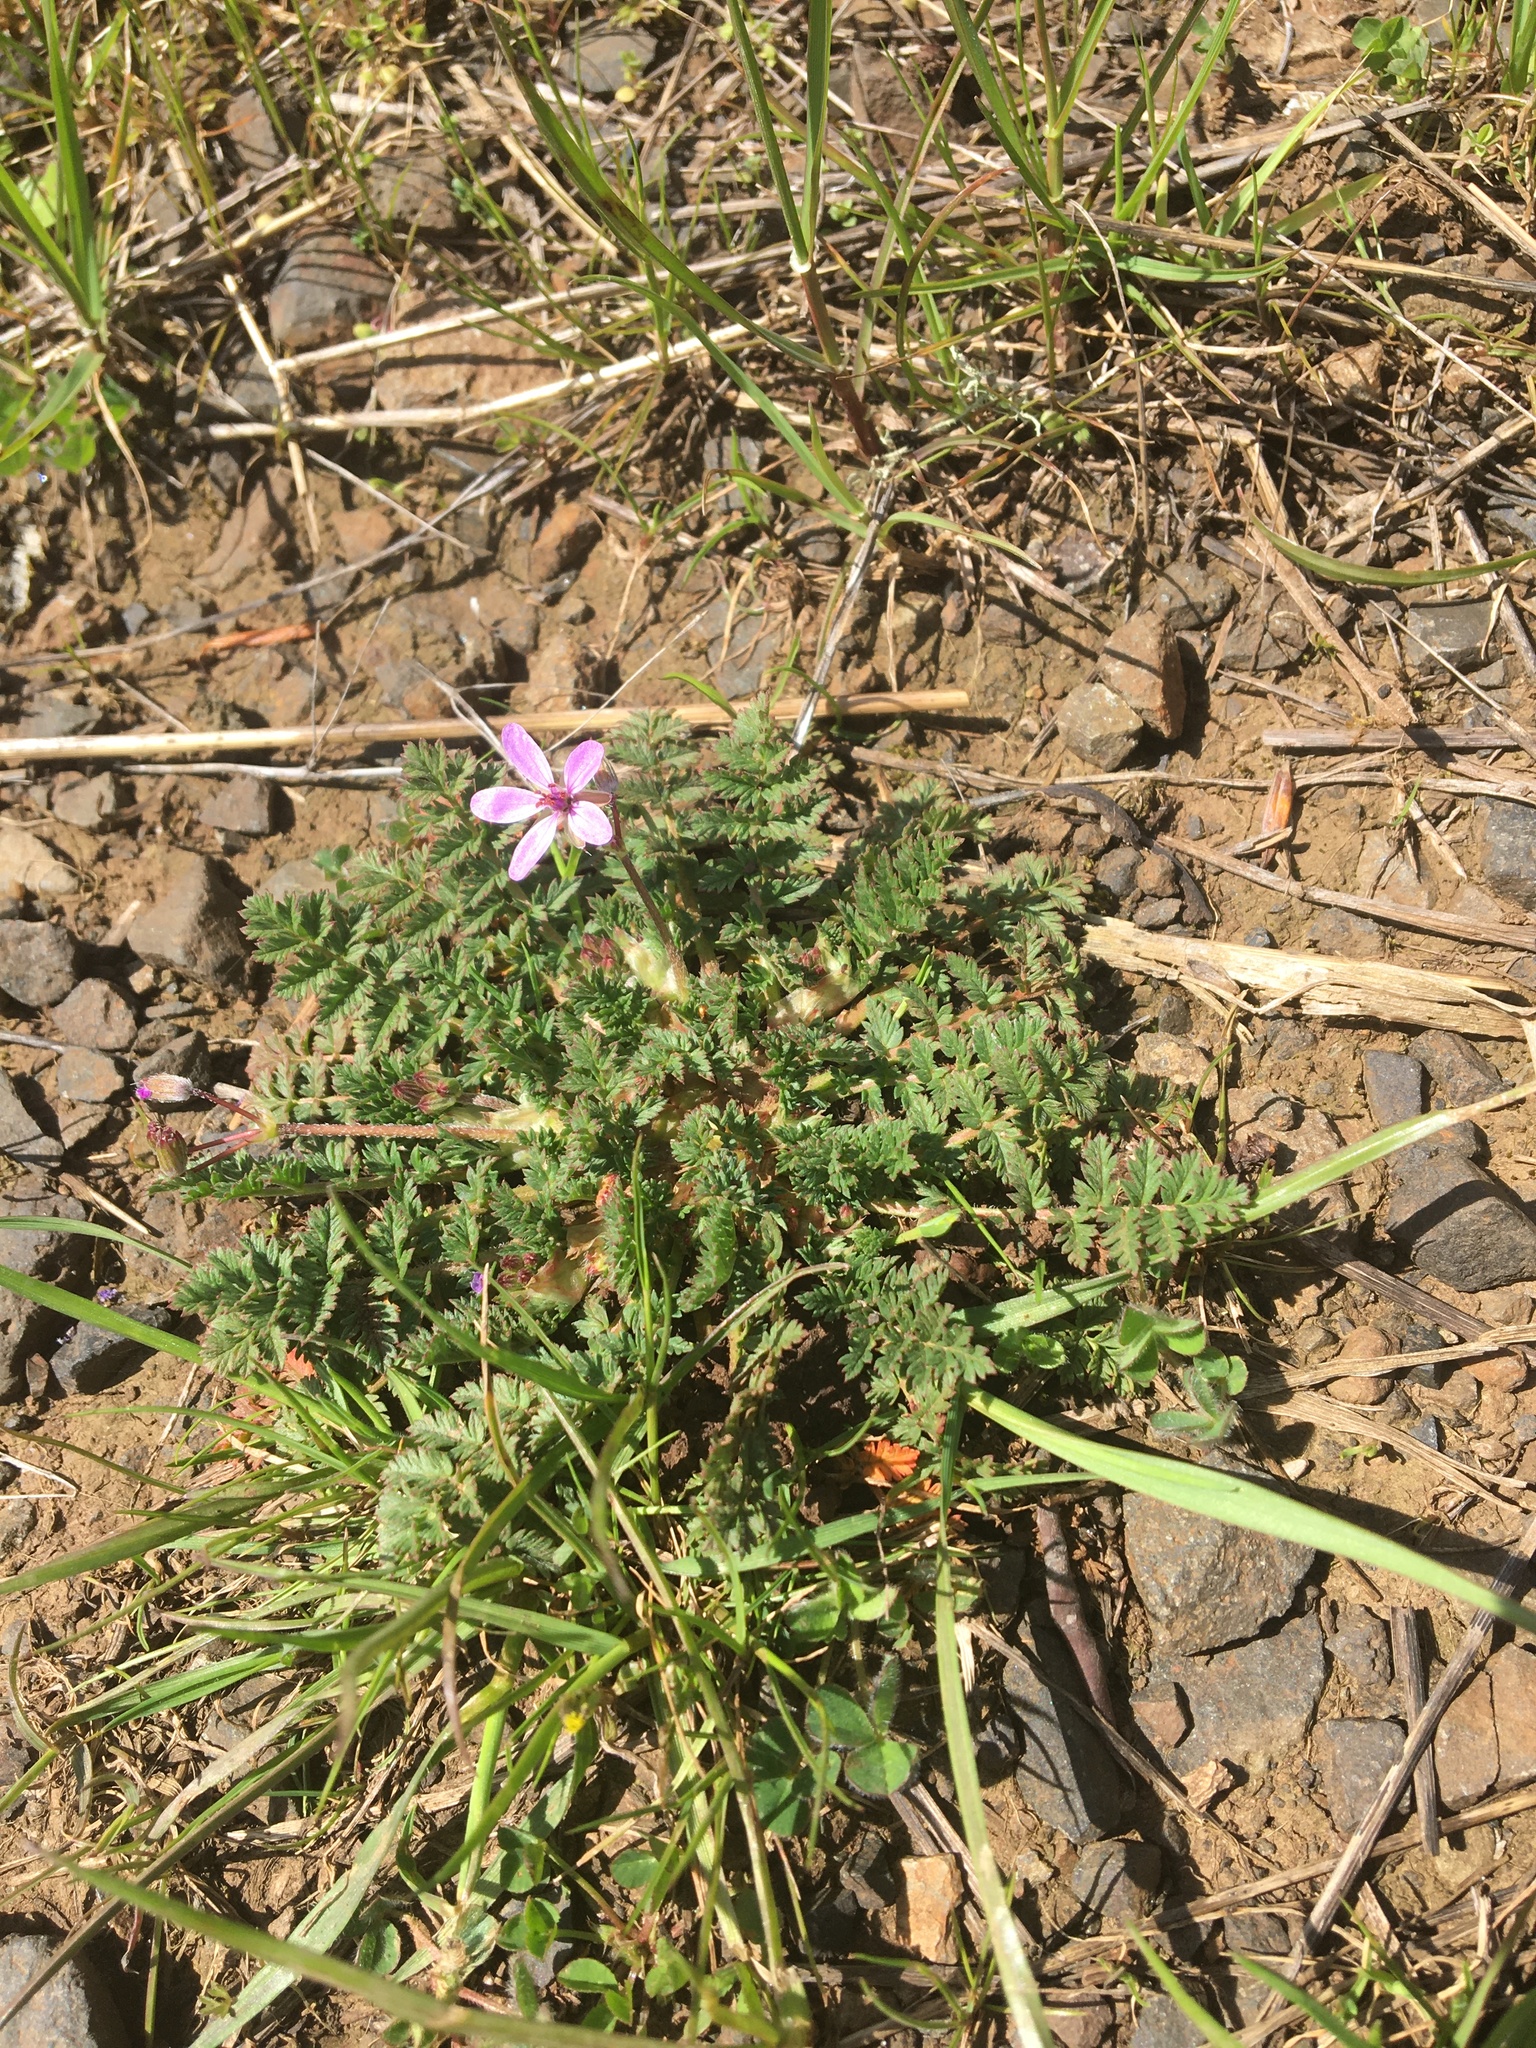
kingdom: Plantae
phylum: Tracheophyta
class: Magnoliopsida
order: Geraniales
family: Geraniaceae
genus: Erodium
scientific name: Erodium cicutarium
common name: Common stork's-bill
